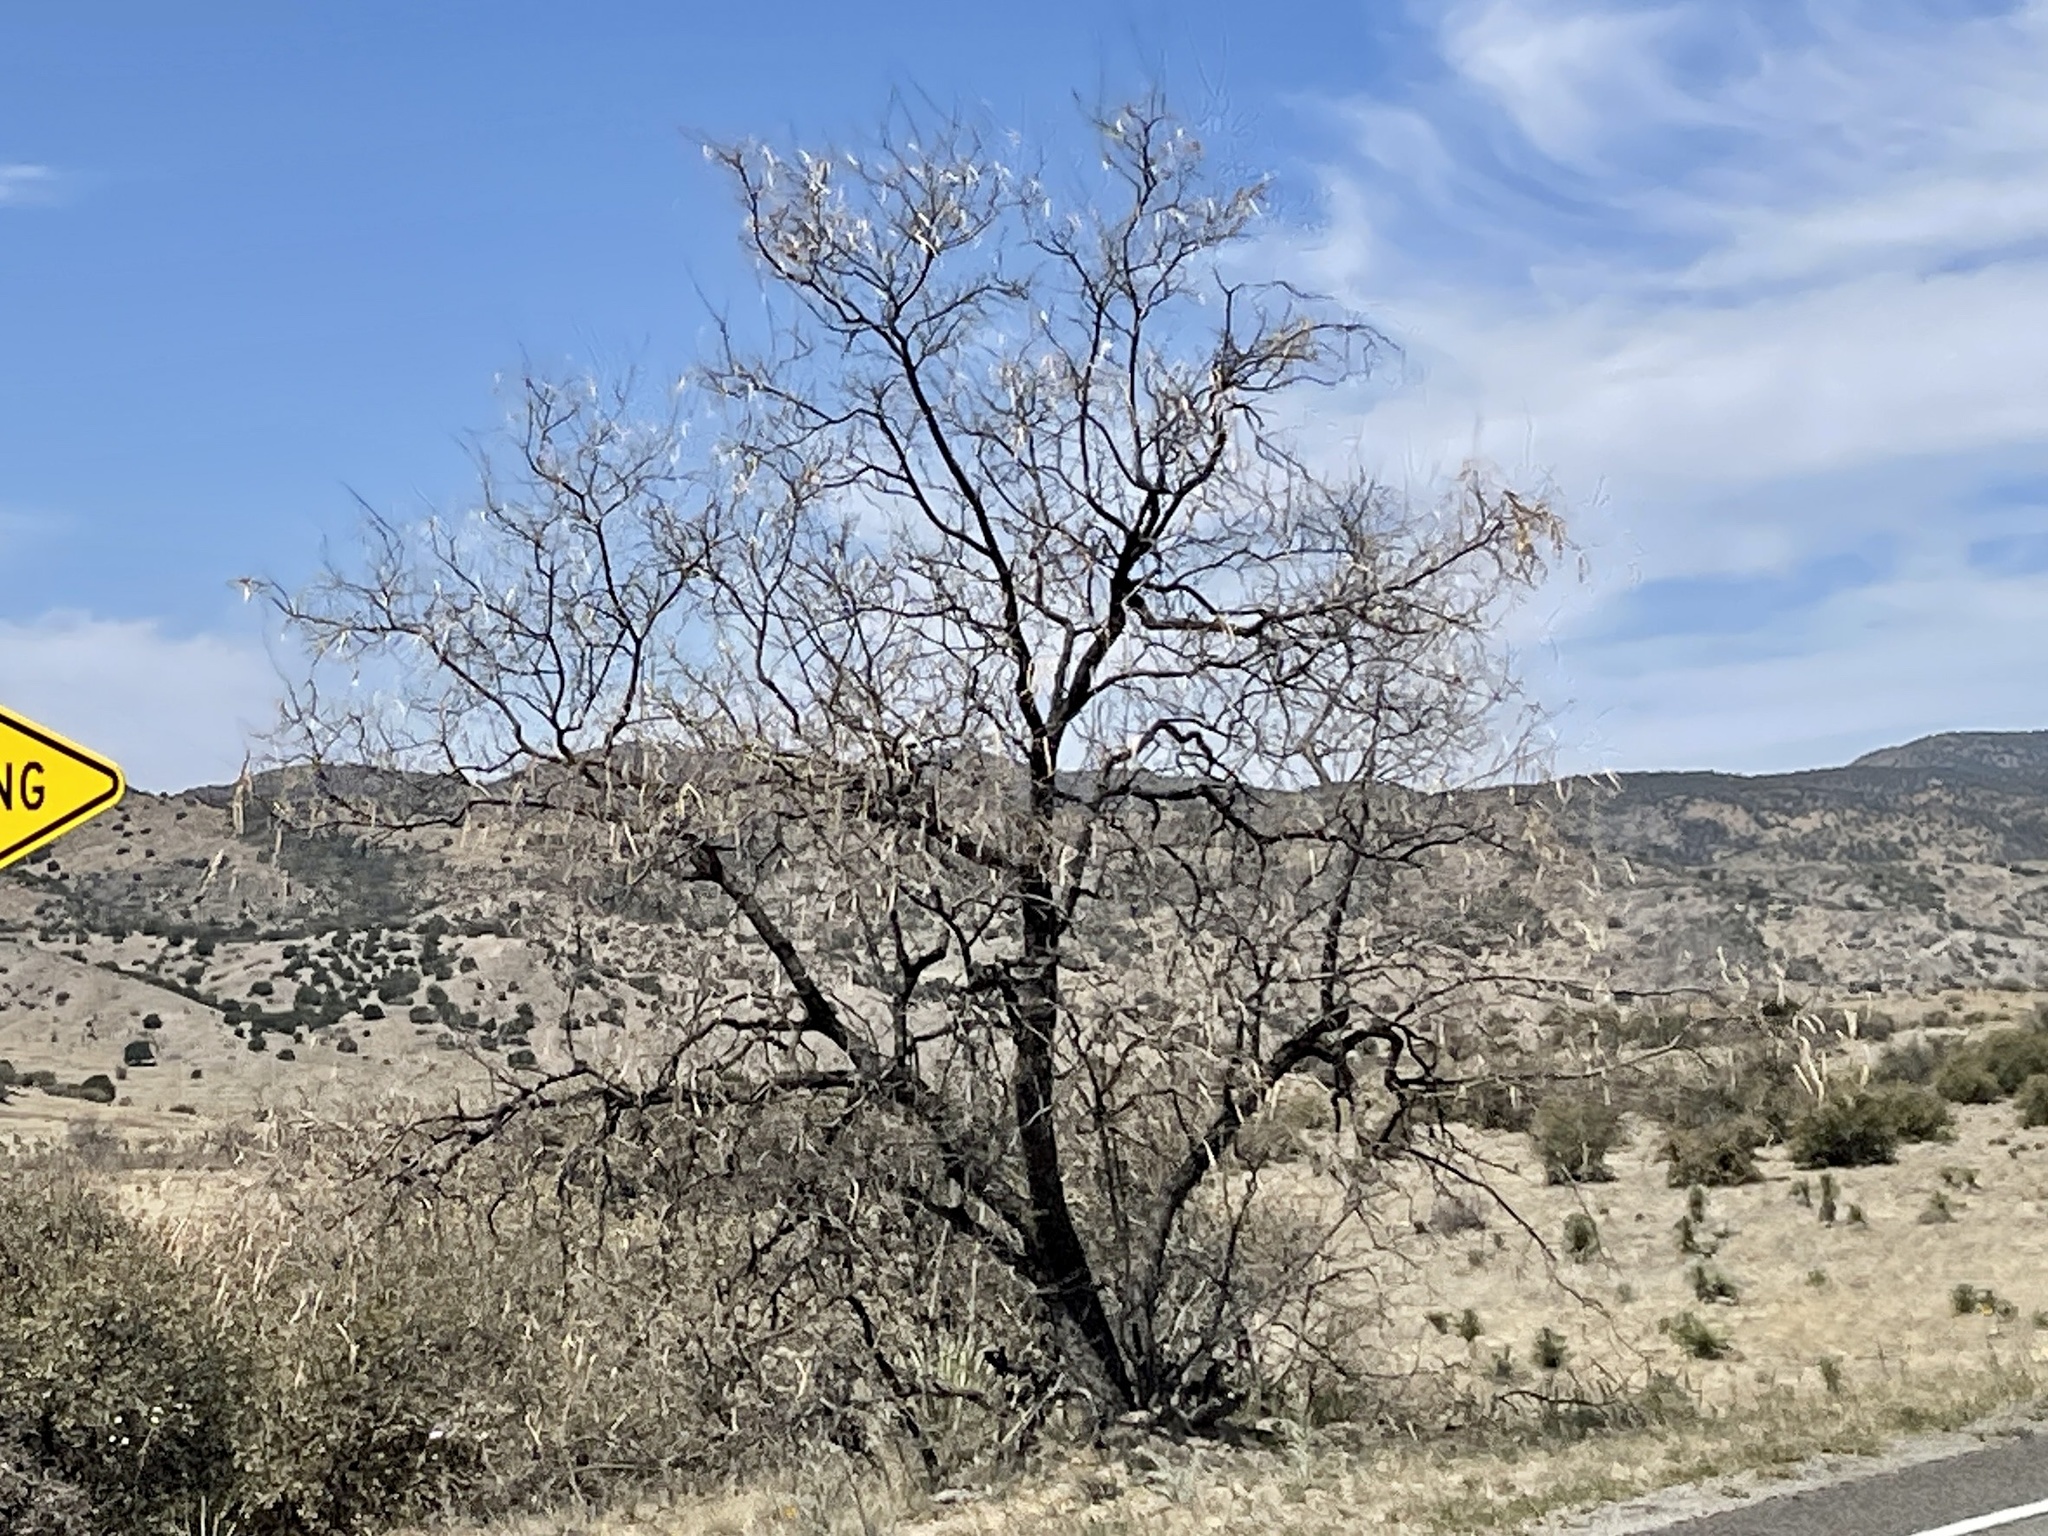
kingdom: Plantae
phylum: Tracheophyta
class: Magnoliopsida
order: Lamiales
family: Bignoniaceae
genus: Chilopsis
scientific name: Chilopsis linearis
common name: Desert-willow
